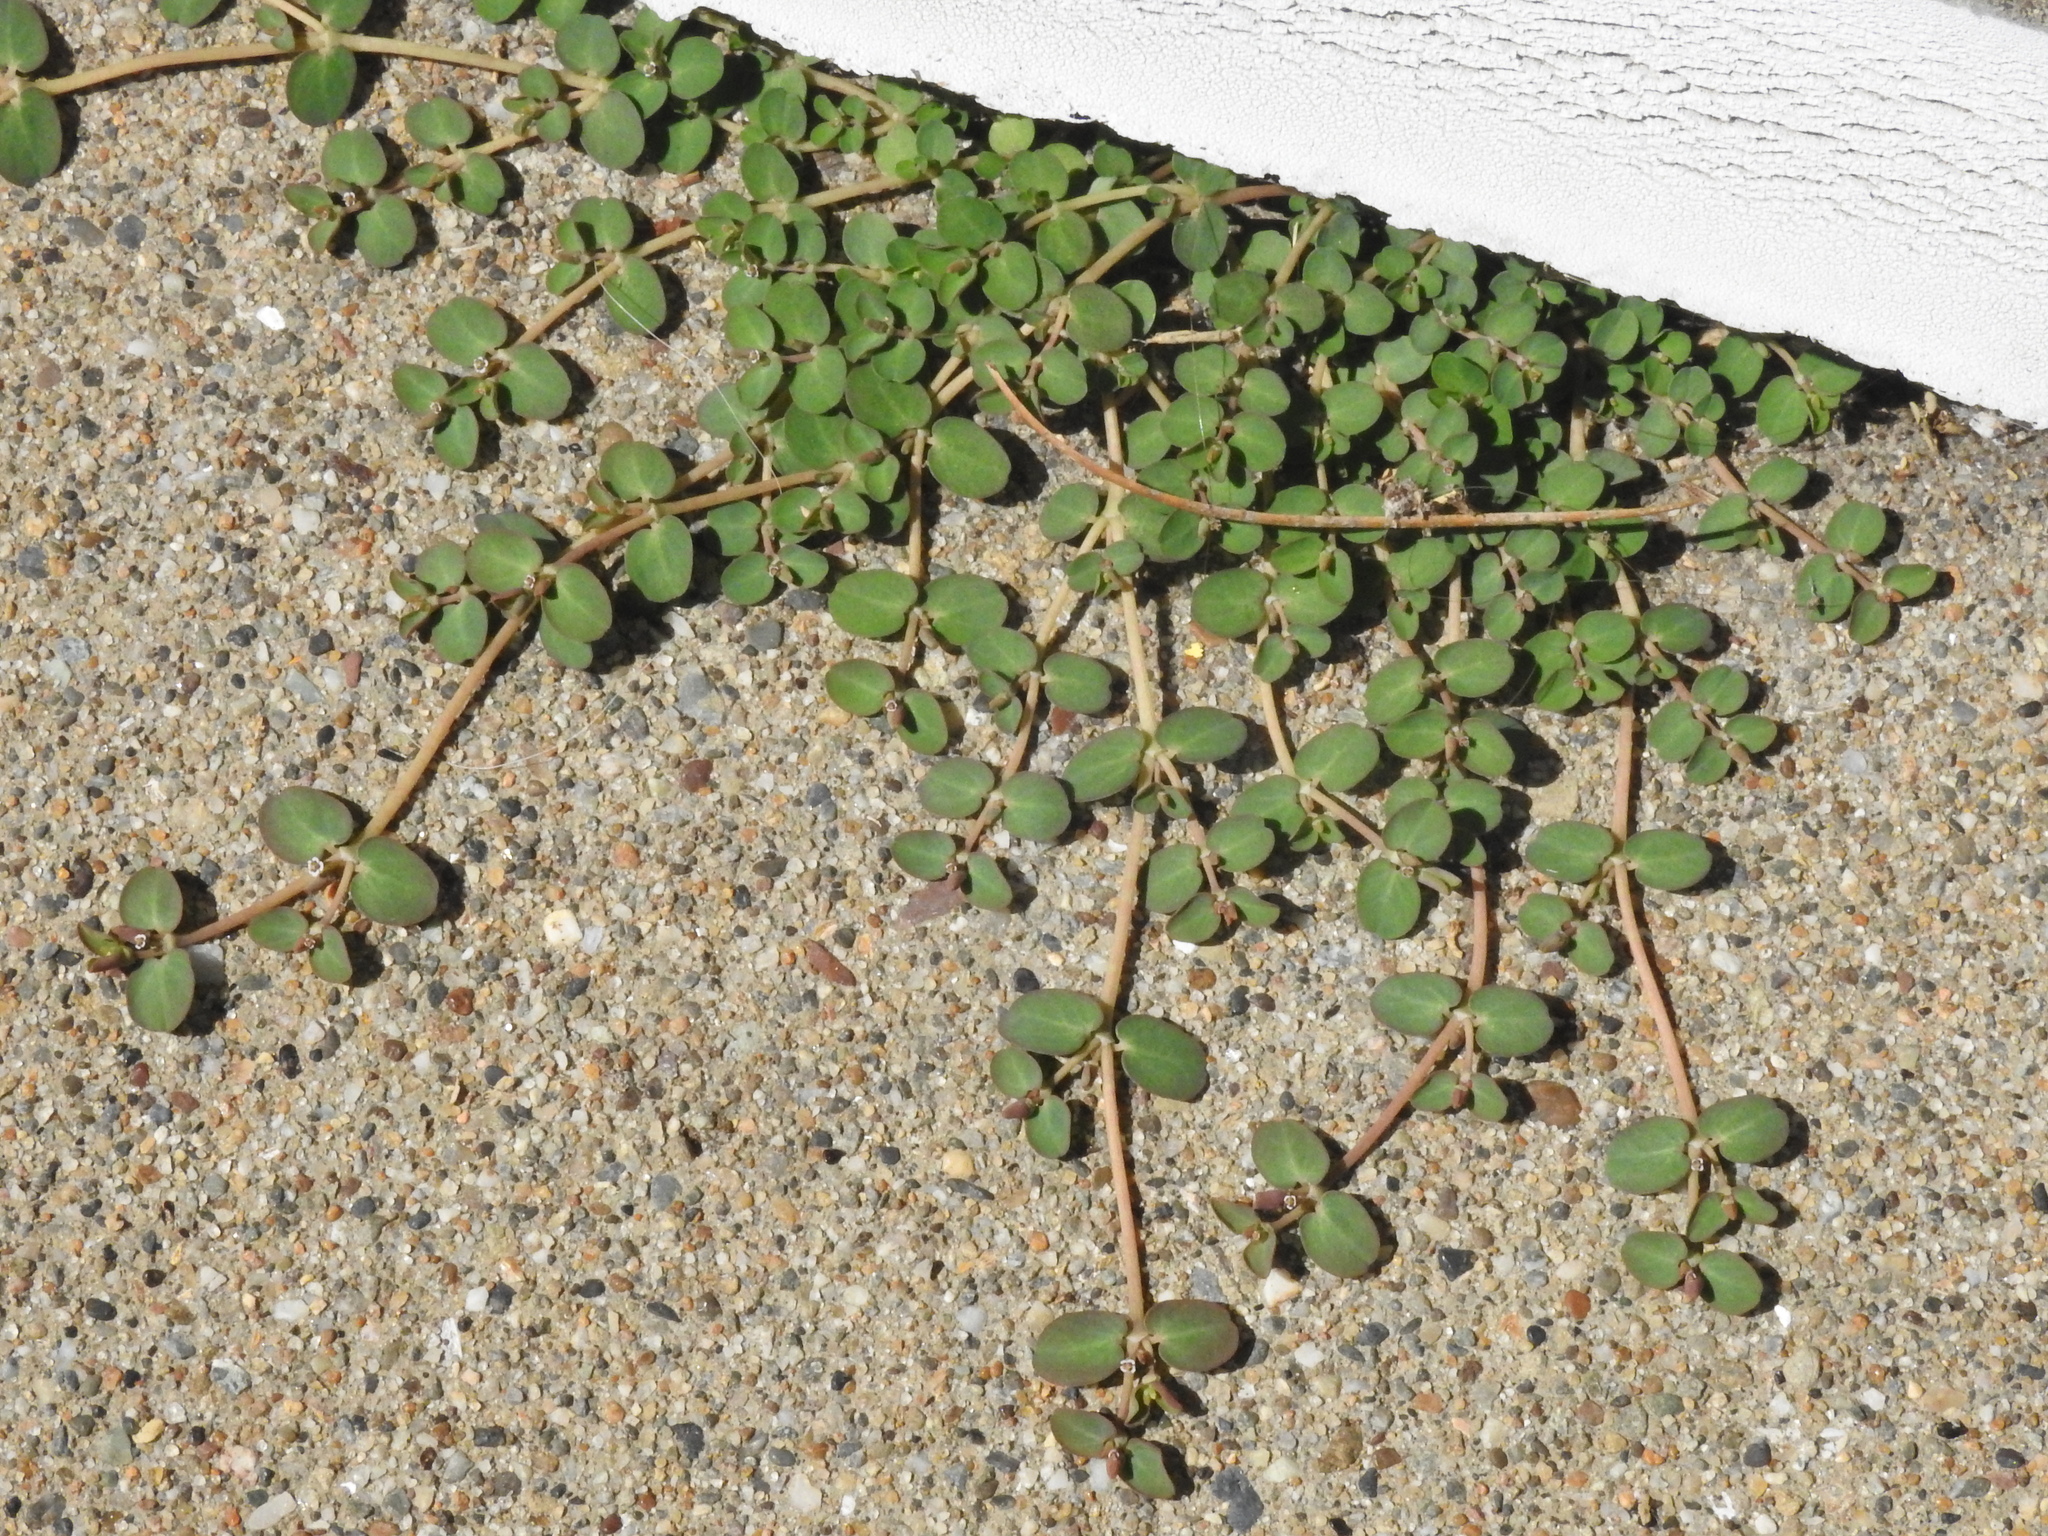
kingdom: Plantae
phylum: Tracheophyta
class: Magnoliopsida
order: Malpighiales
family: Euphorbiaceae
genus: Euphorbia
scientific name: Euphorbia serpens
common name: Matted sandmat
